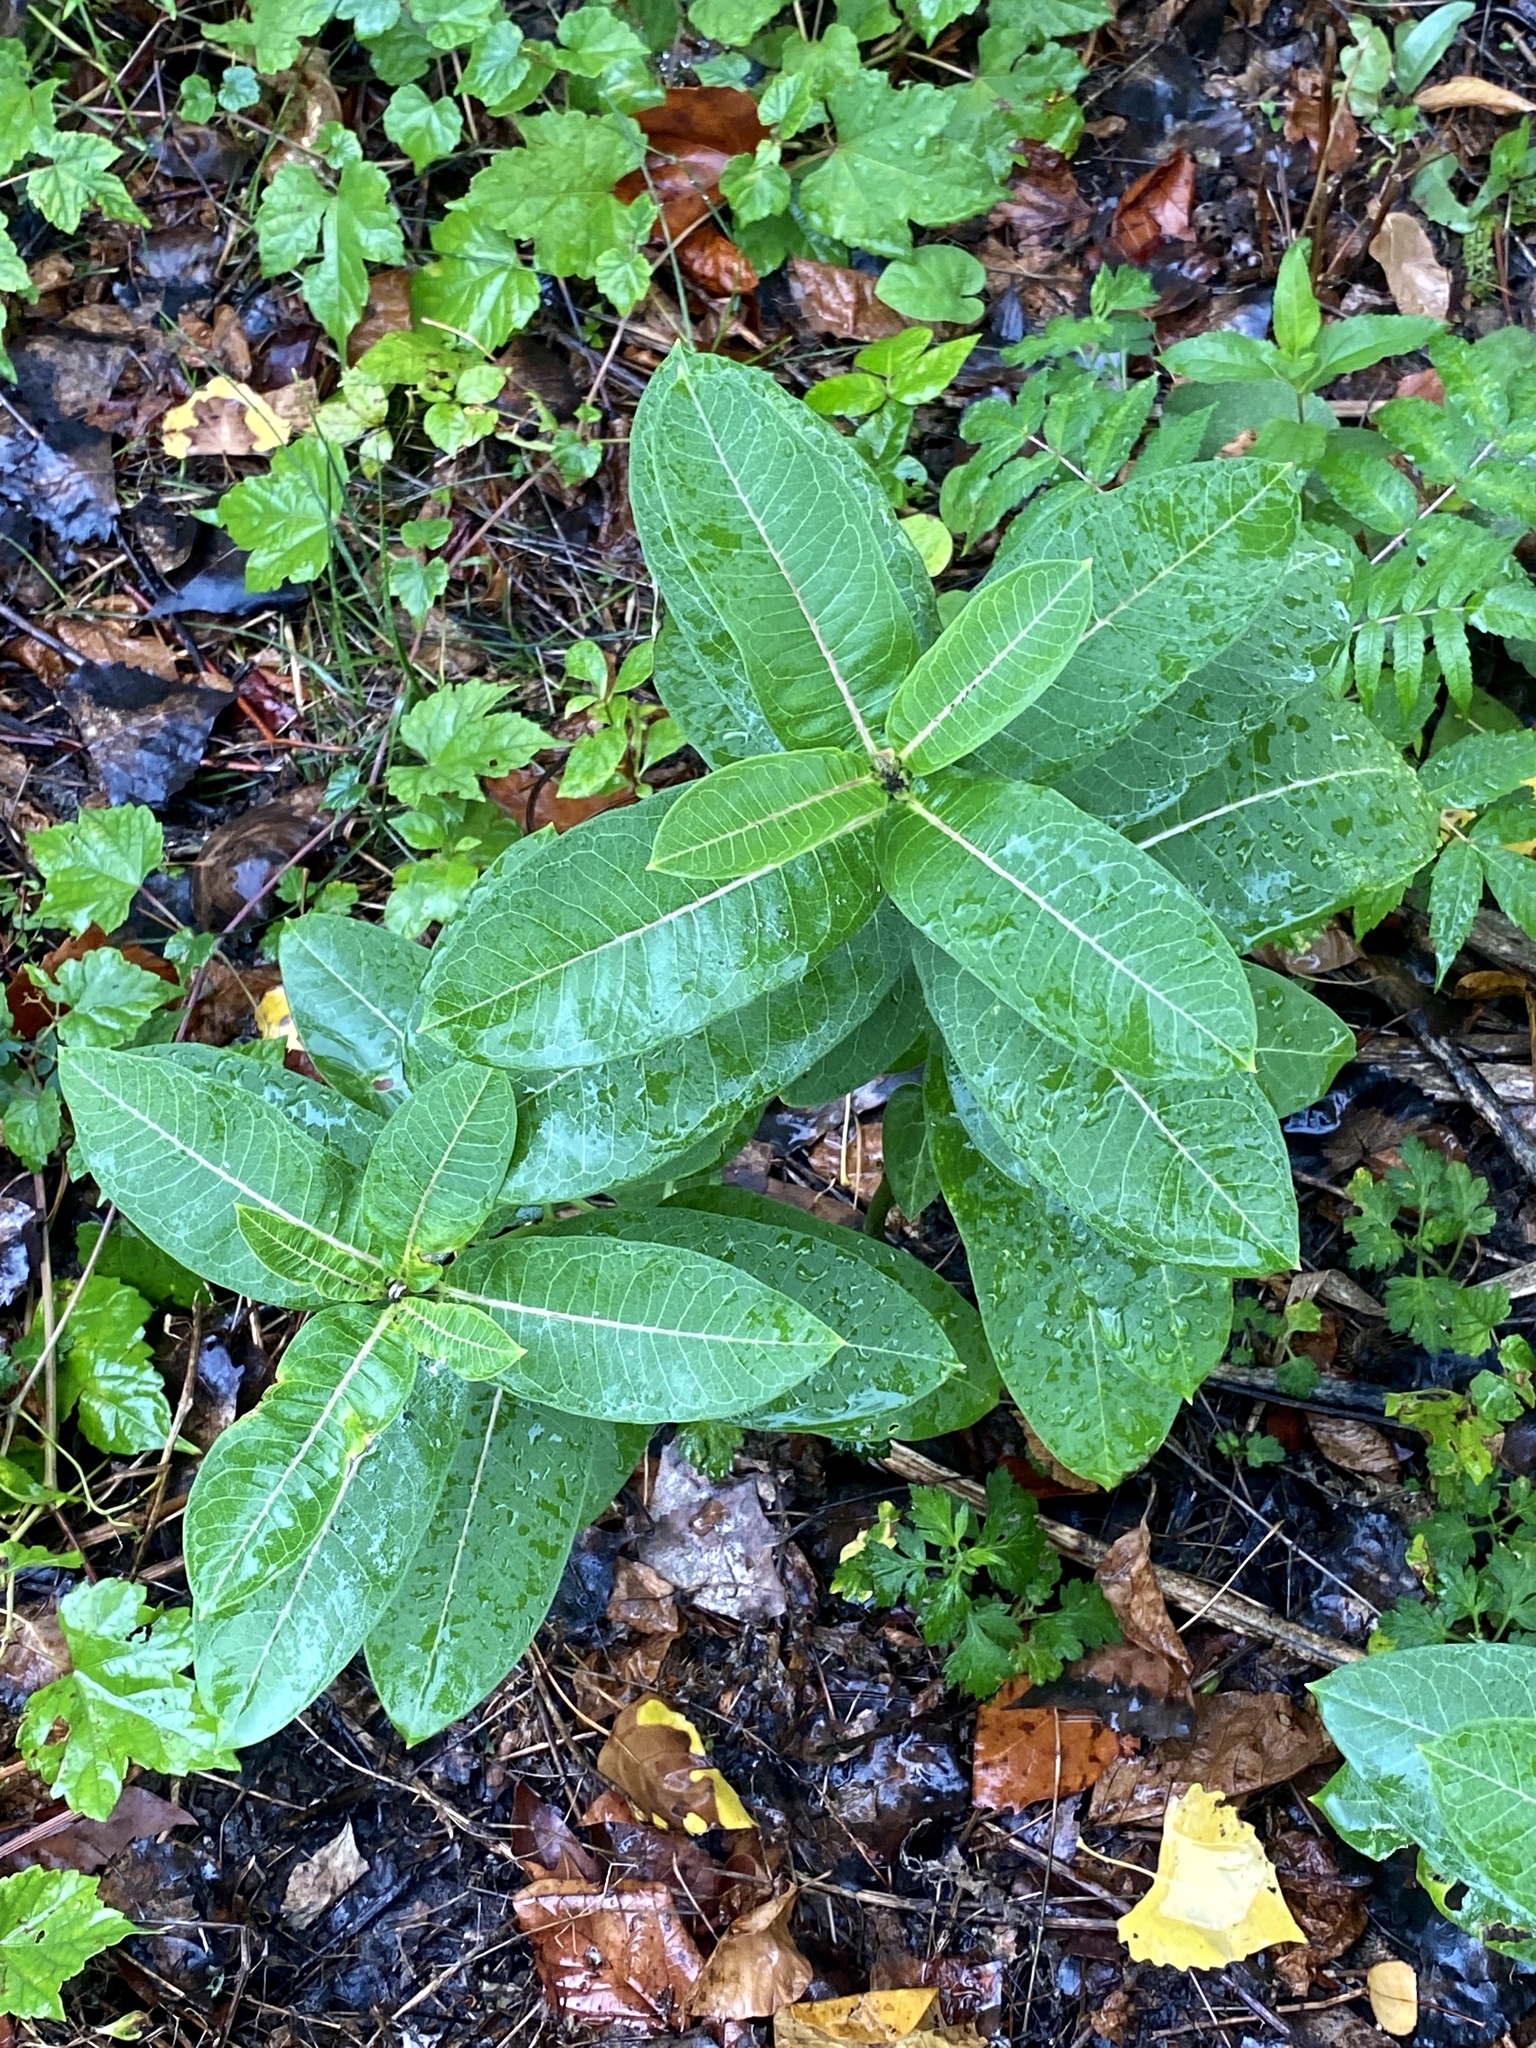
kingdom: Plantae
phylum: Tracheophyta
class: Magnoliopsida
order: Gentianales
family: Apocynaceae
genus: Asclepias
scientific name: Asclepias syriaca
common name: Common milkweed
